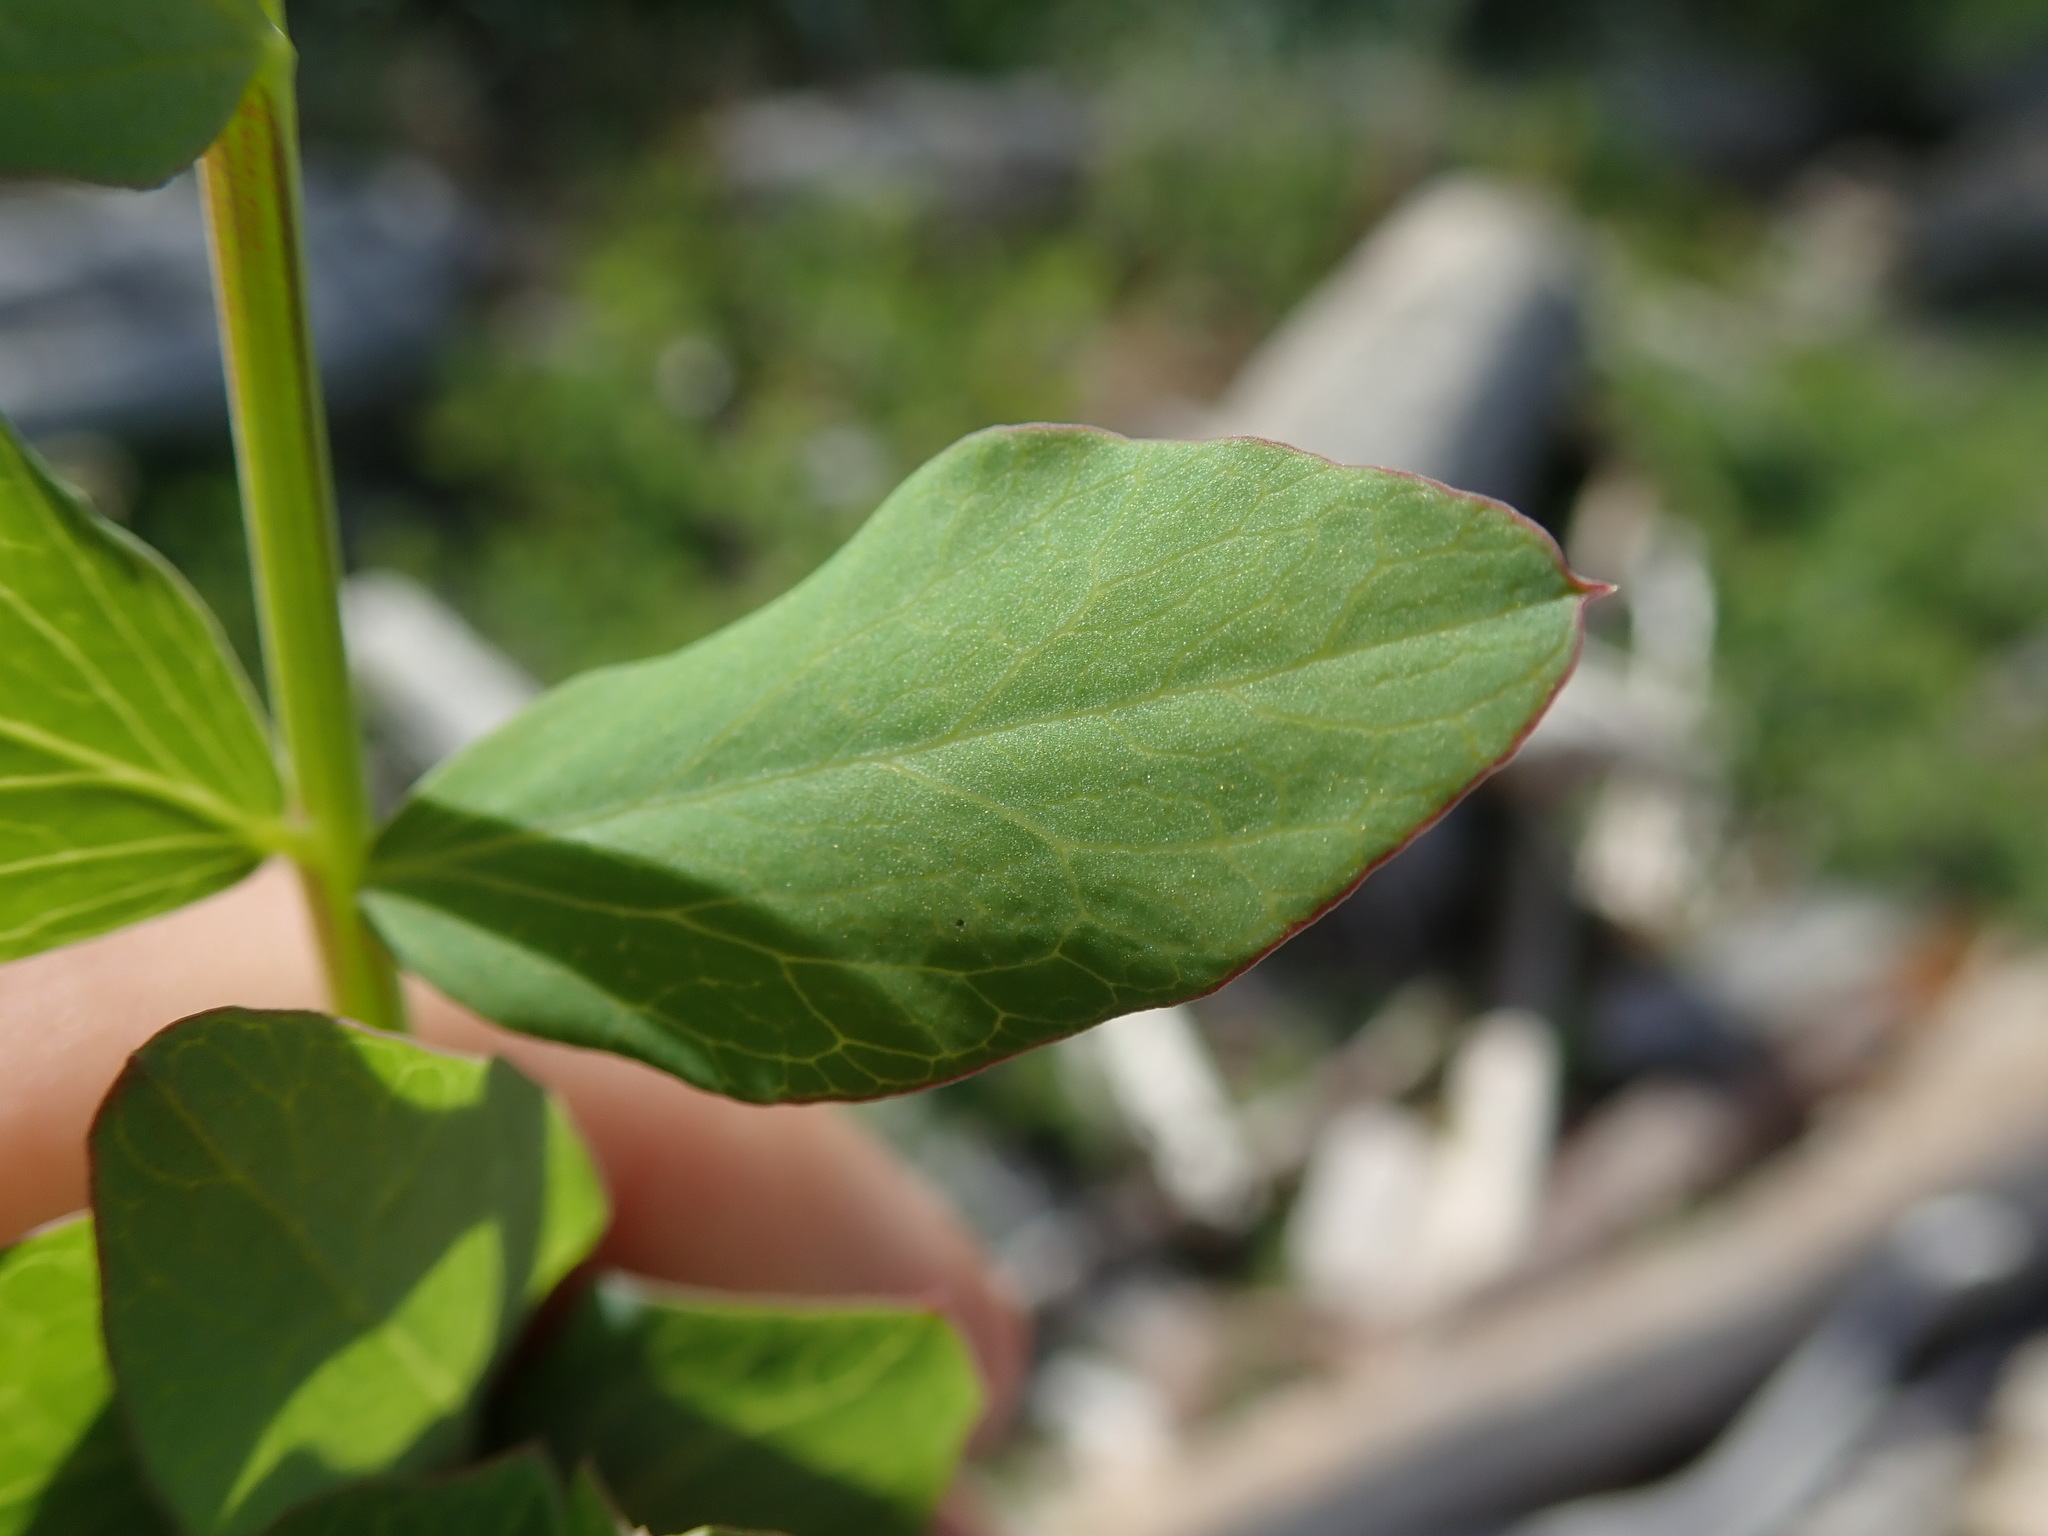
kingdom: Plantae
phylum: Tracheophyta
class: Magnoliopsida
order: Fabales
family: Fabaceae
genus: Lathyrus
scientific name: Lathyrus japonicus
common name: Sea pea
